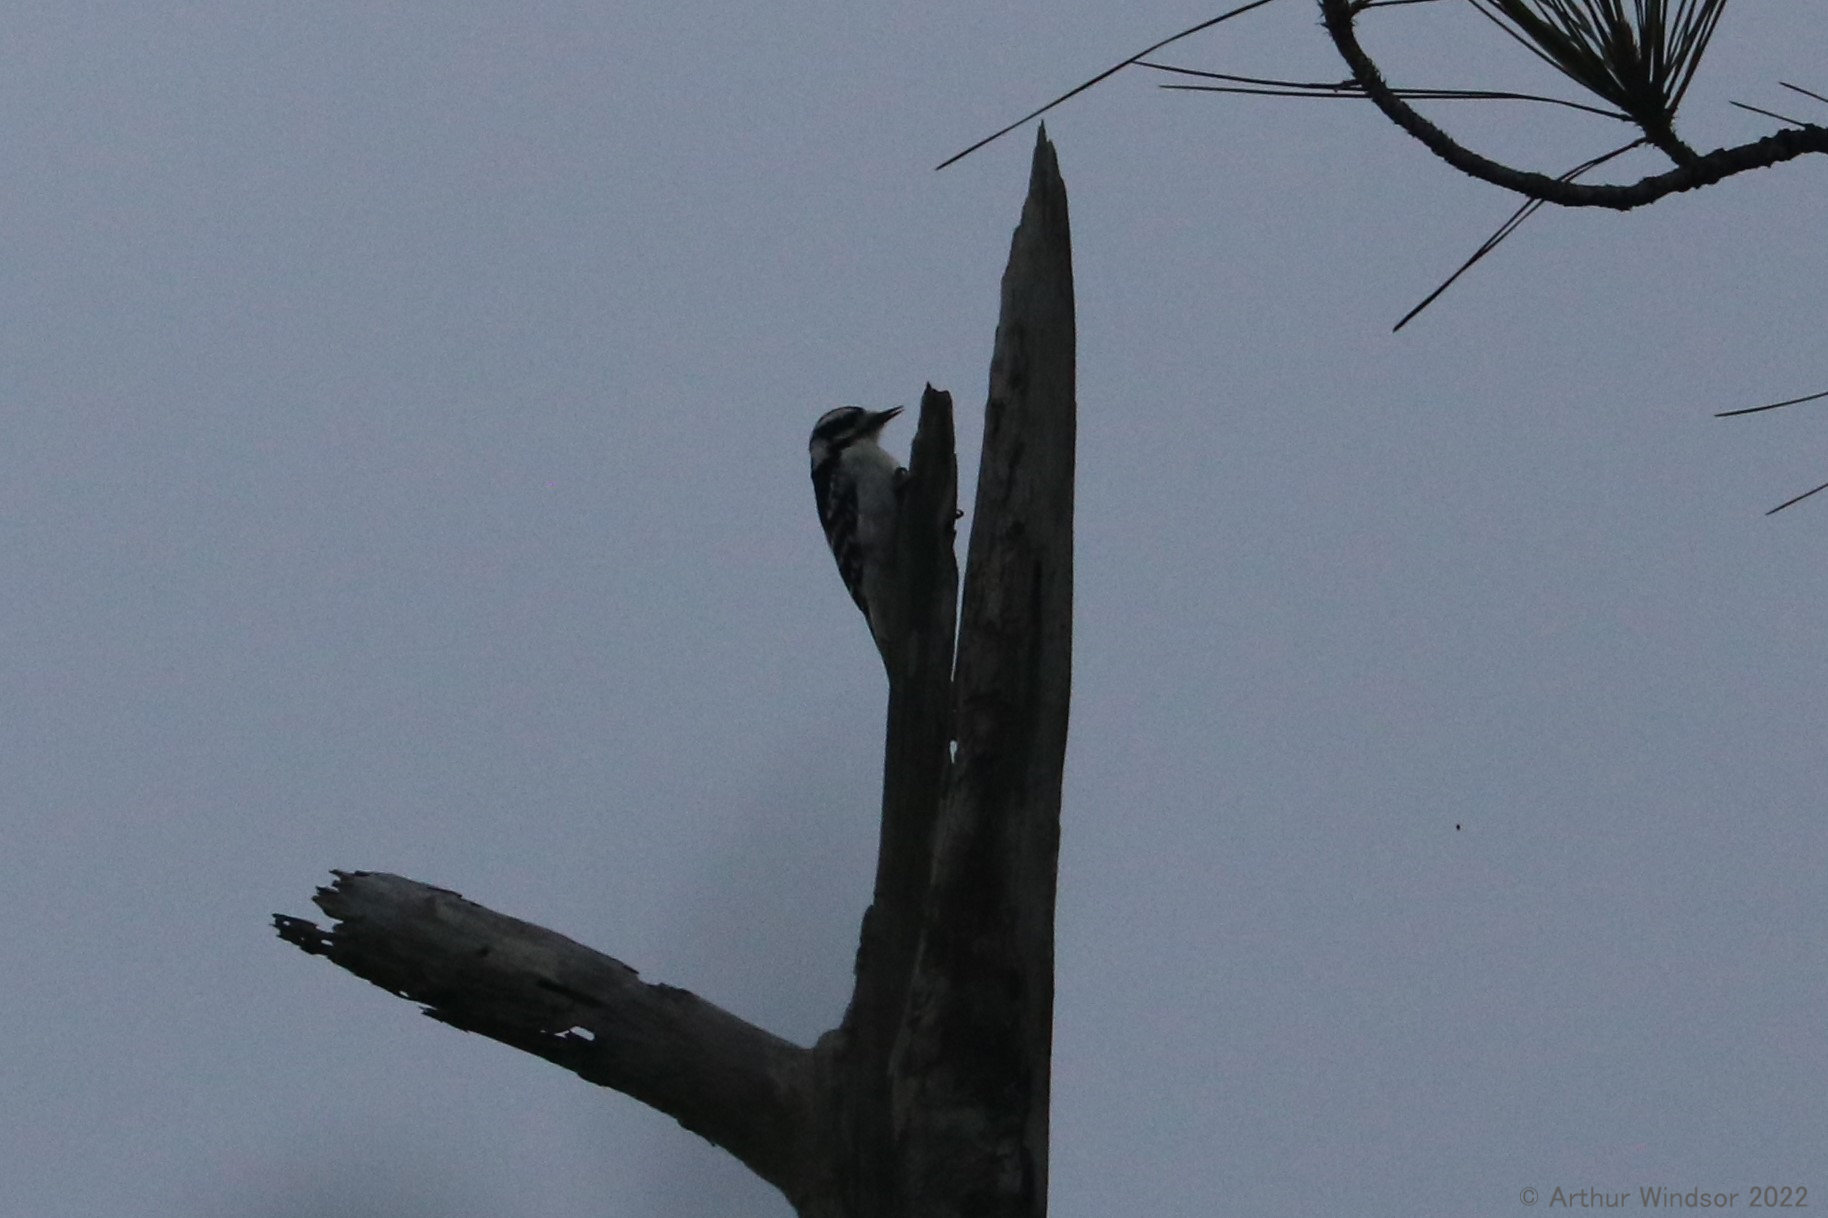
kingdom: Animalia
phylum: Chordata
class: Aves
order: Piciformes
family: Picidae
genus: Dryobates
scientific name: Dryobates pubescens
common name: Downy woodpecker
